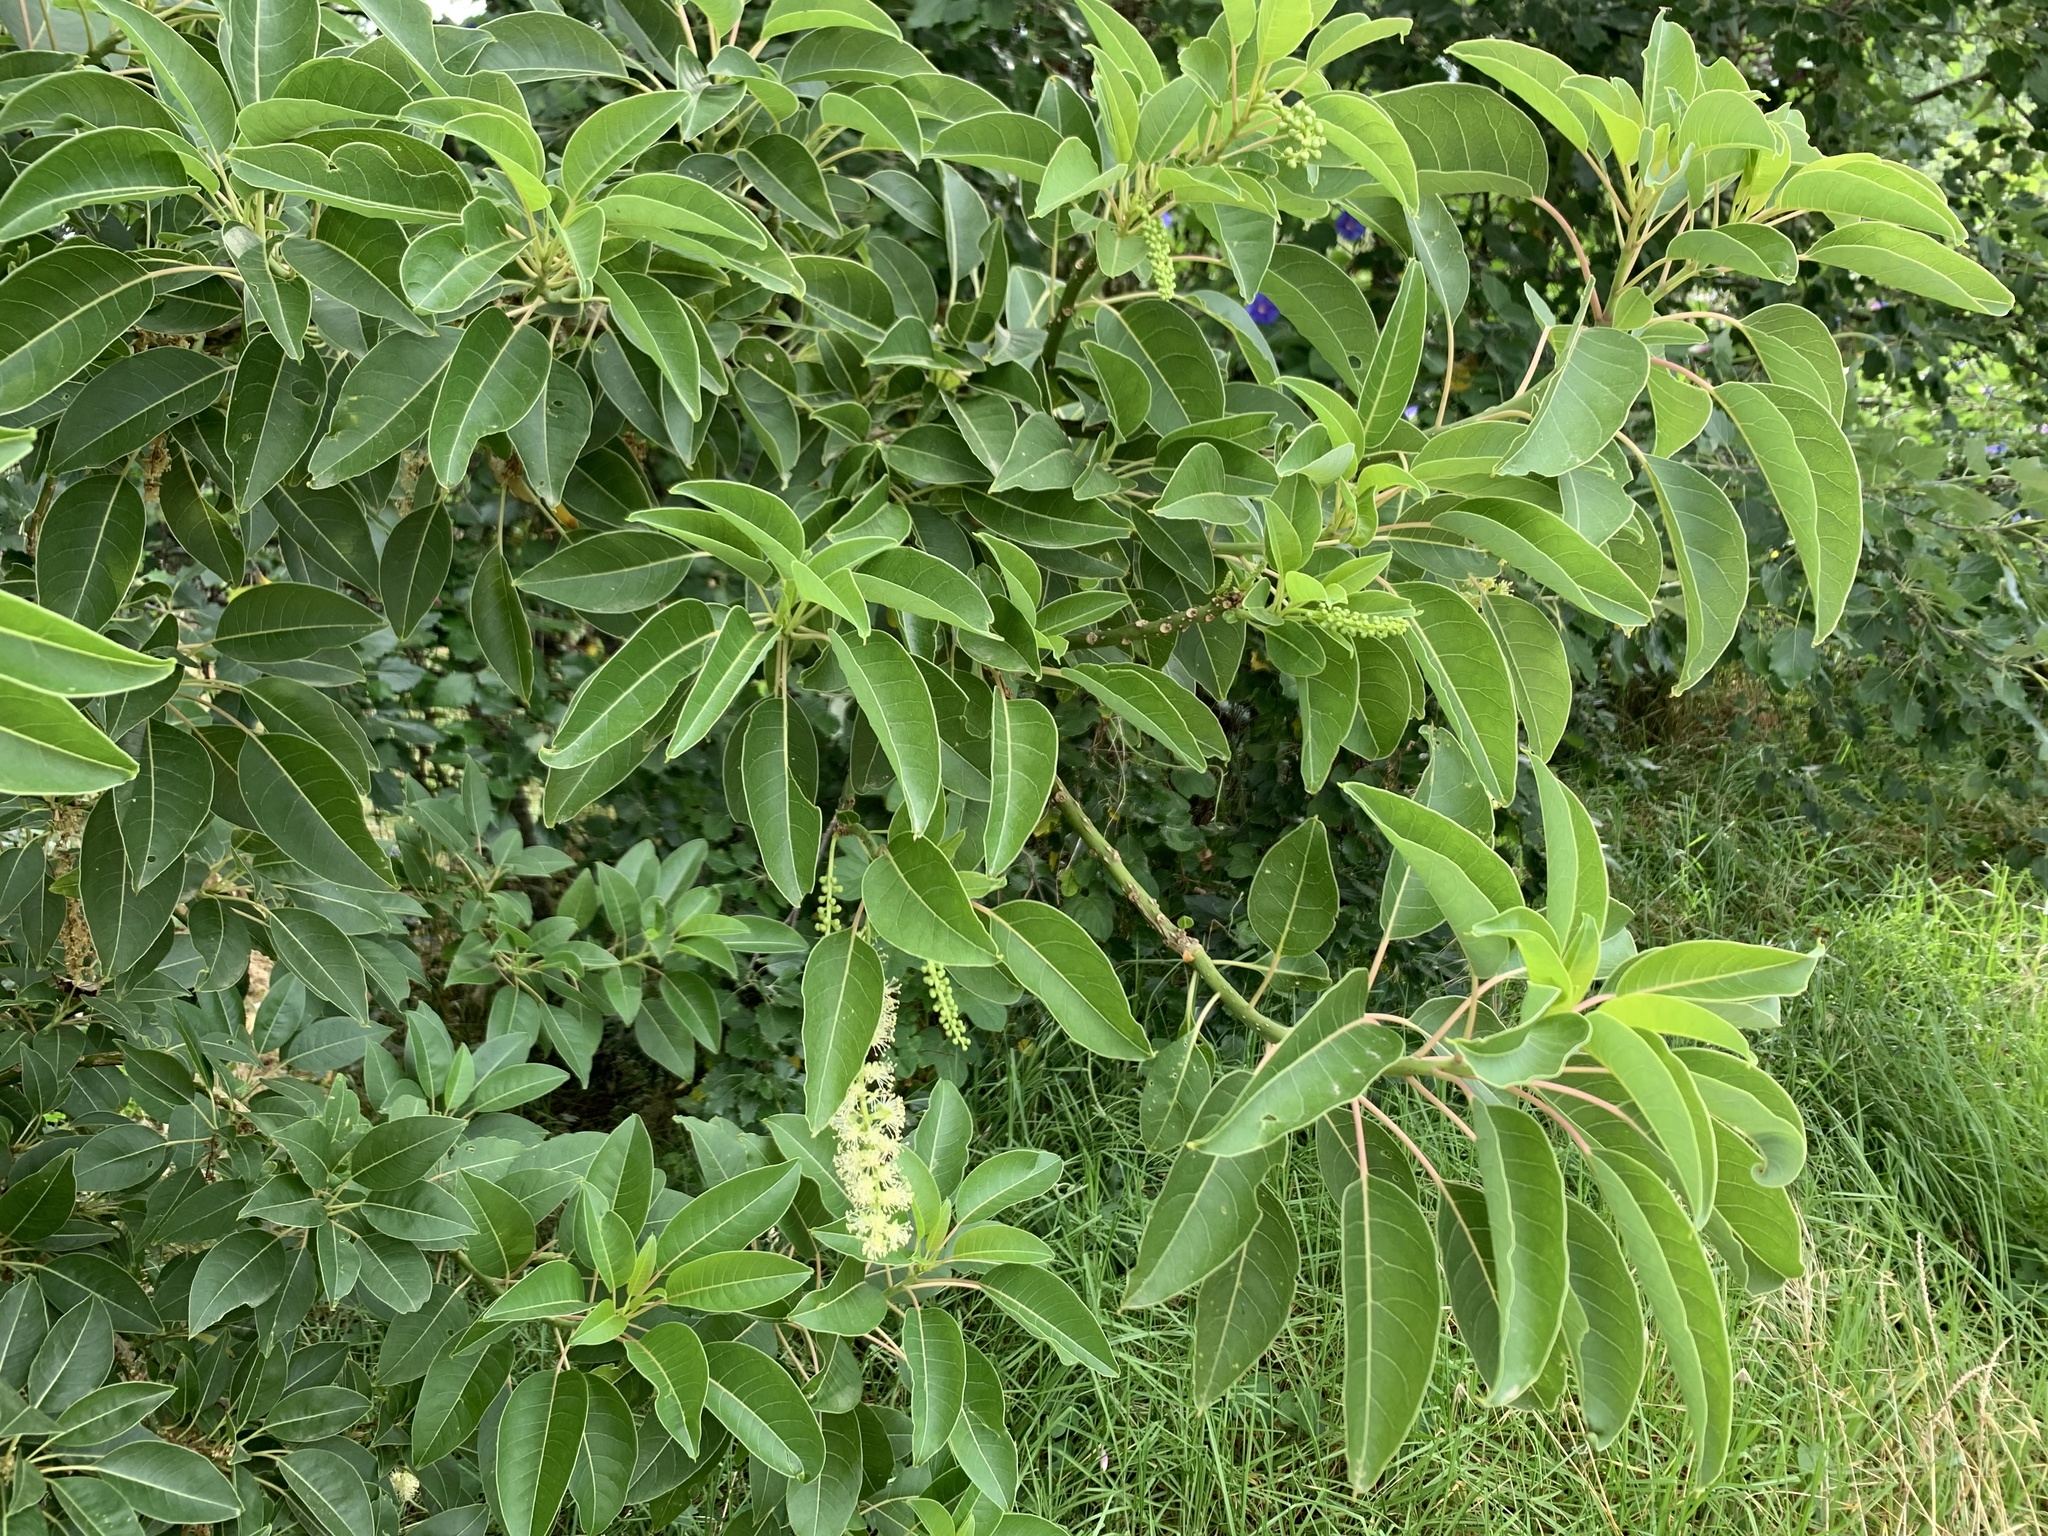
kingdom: Plantae
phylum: Tracheophyta
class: Magnoliopsida
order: Caryophyllales
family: Phytolaccaceae
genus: Phytolacca
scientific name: Phytolacca dioica
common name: Pokeweed
